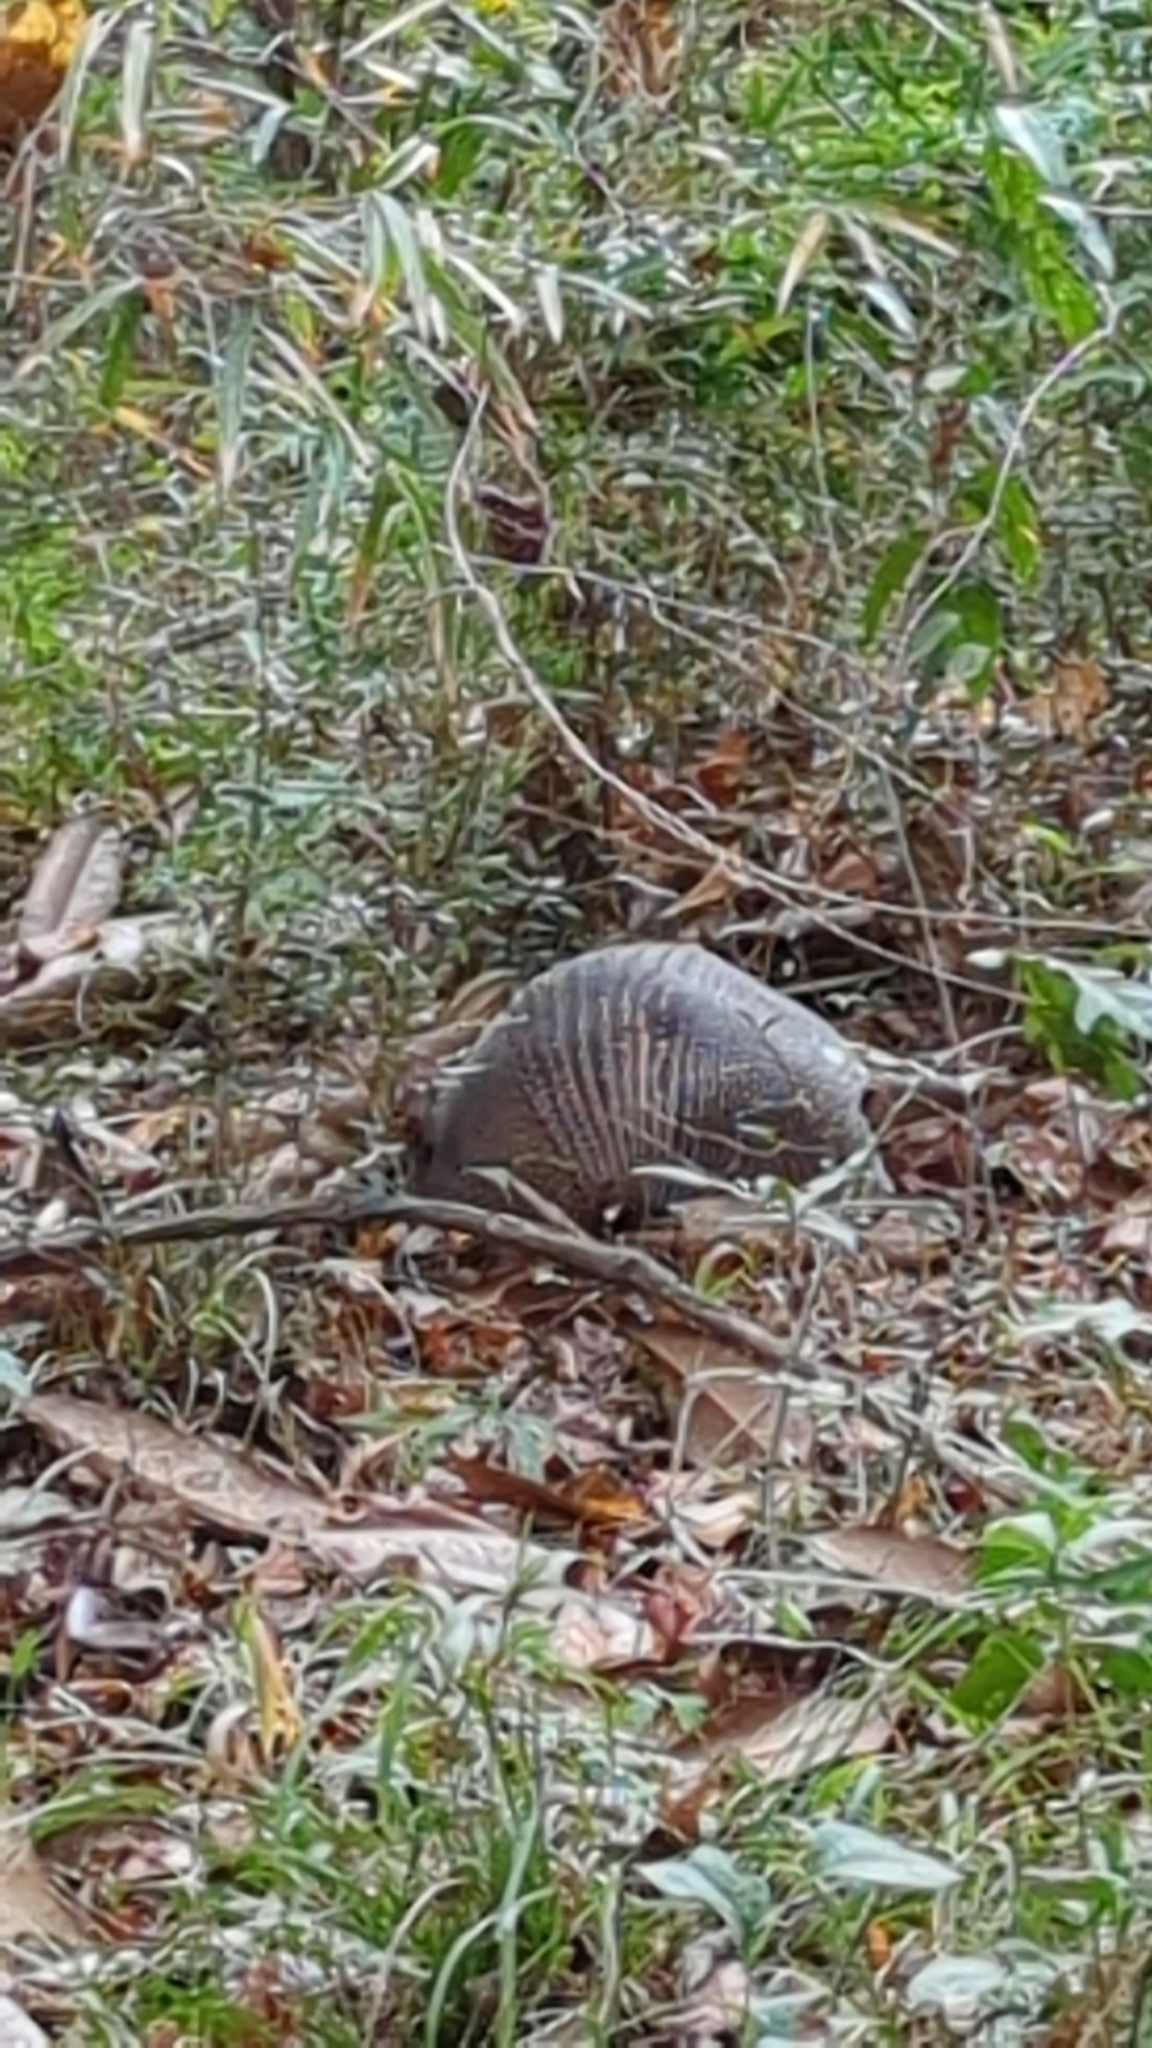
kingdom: Animalia
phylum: Chordata
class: Mammalia
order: Cingulata
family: Dasypodidae
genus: Dasypus
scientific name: Dasypus novemcinctus
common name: Nine-banded armadillo
